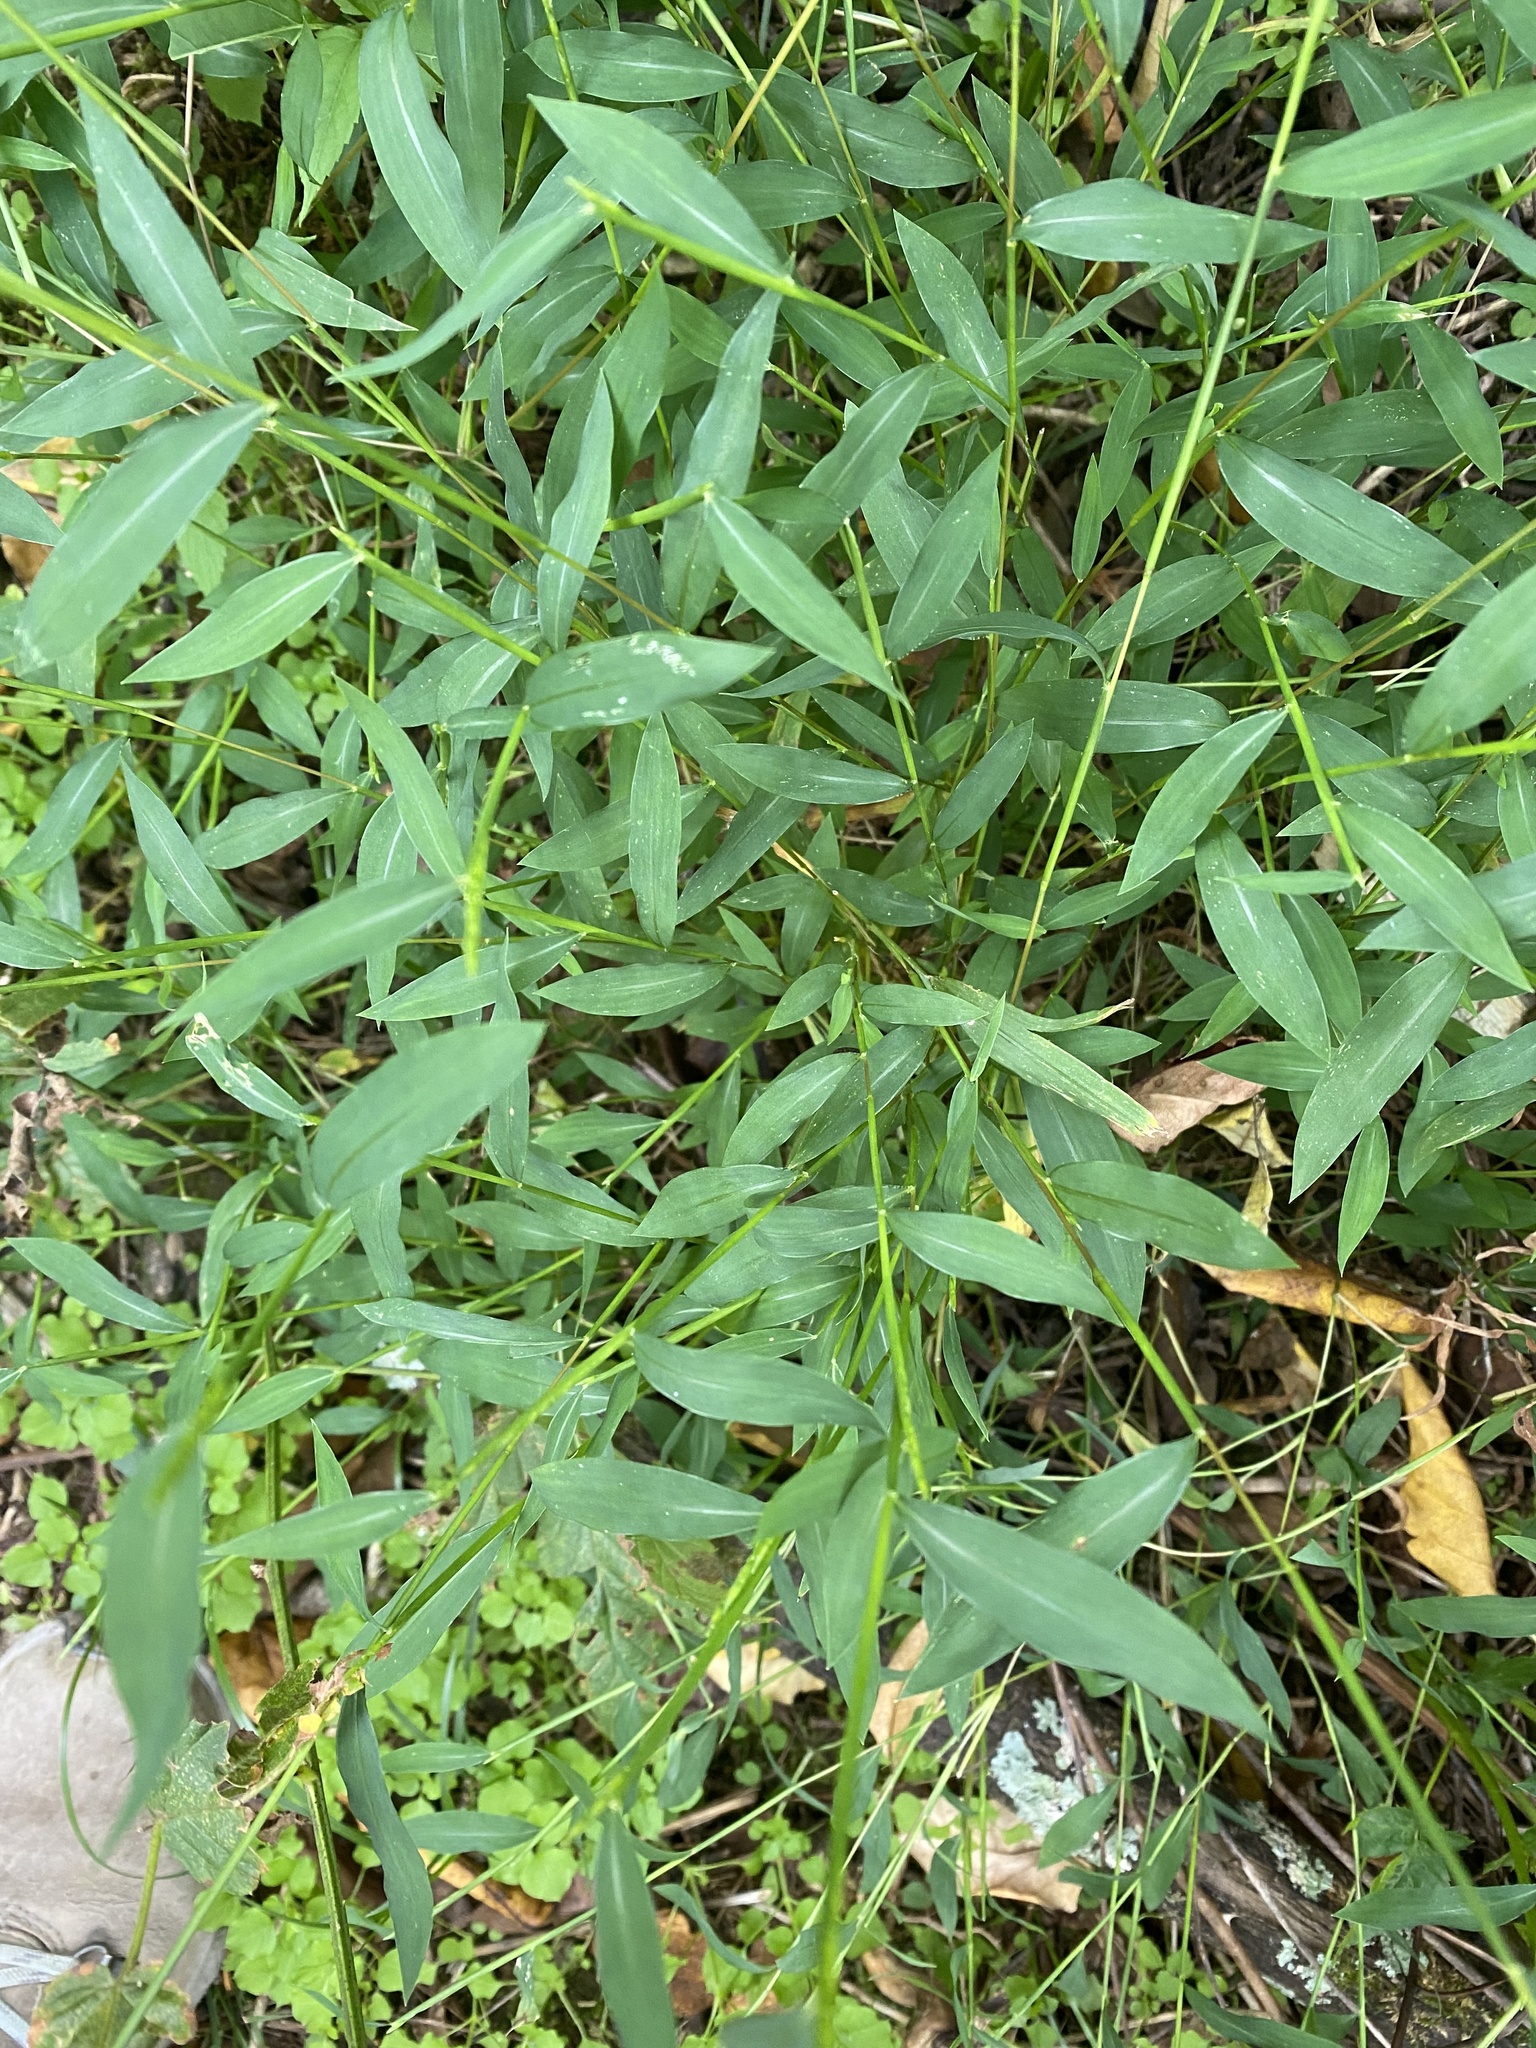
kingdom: Plantae
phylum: Tracheophyta
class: Liliopsida
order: Poales
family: Poaceae
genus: Microstegium
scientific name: Microstegium vimineum
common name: Japanese stiltgrass
